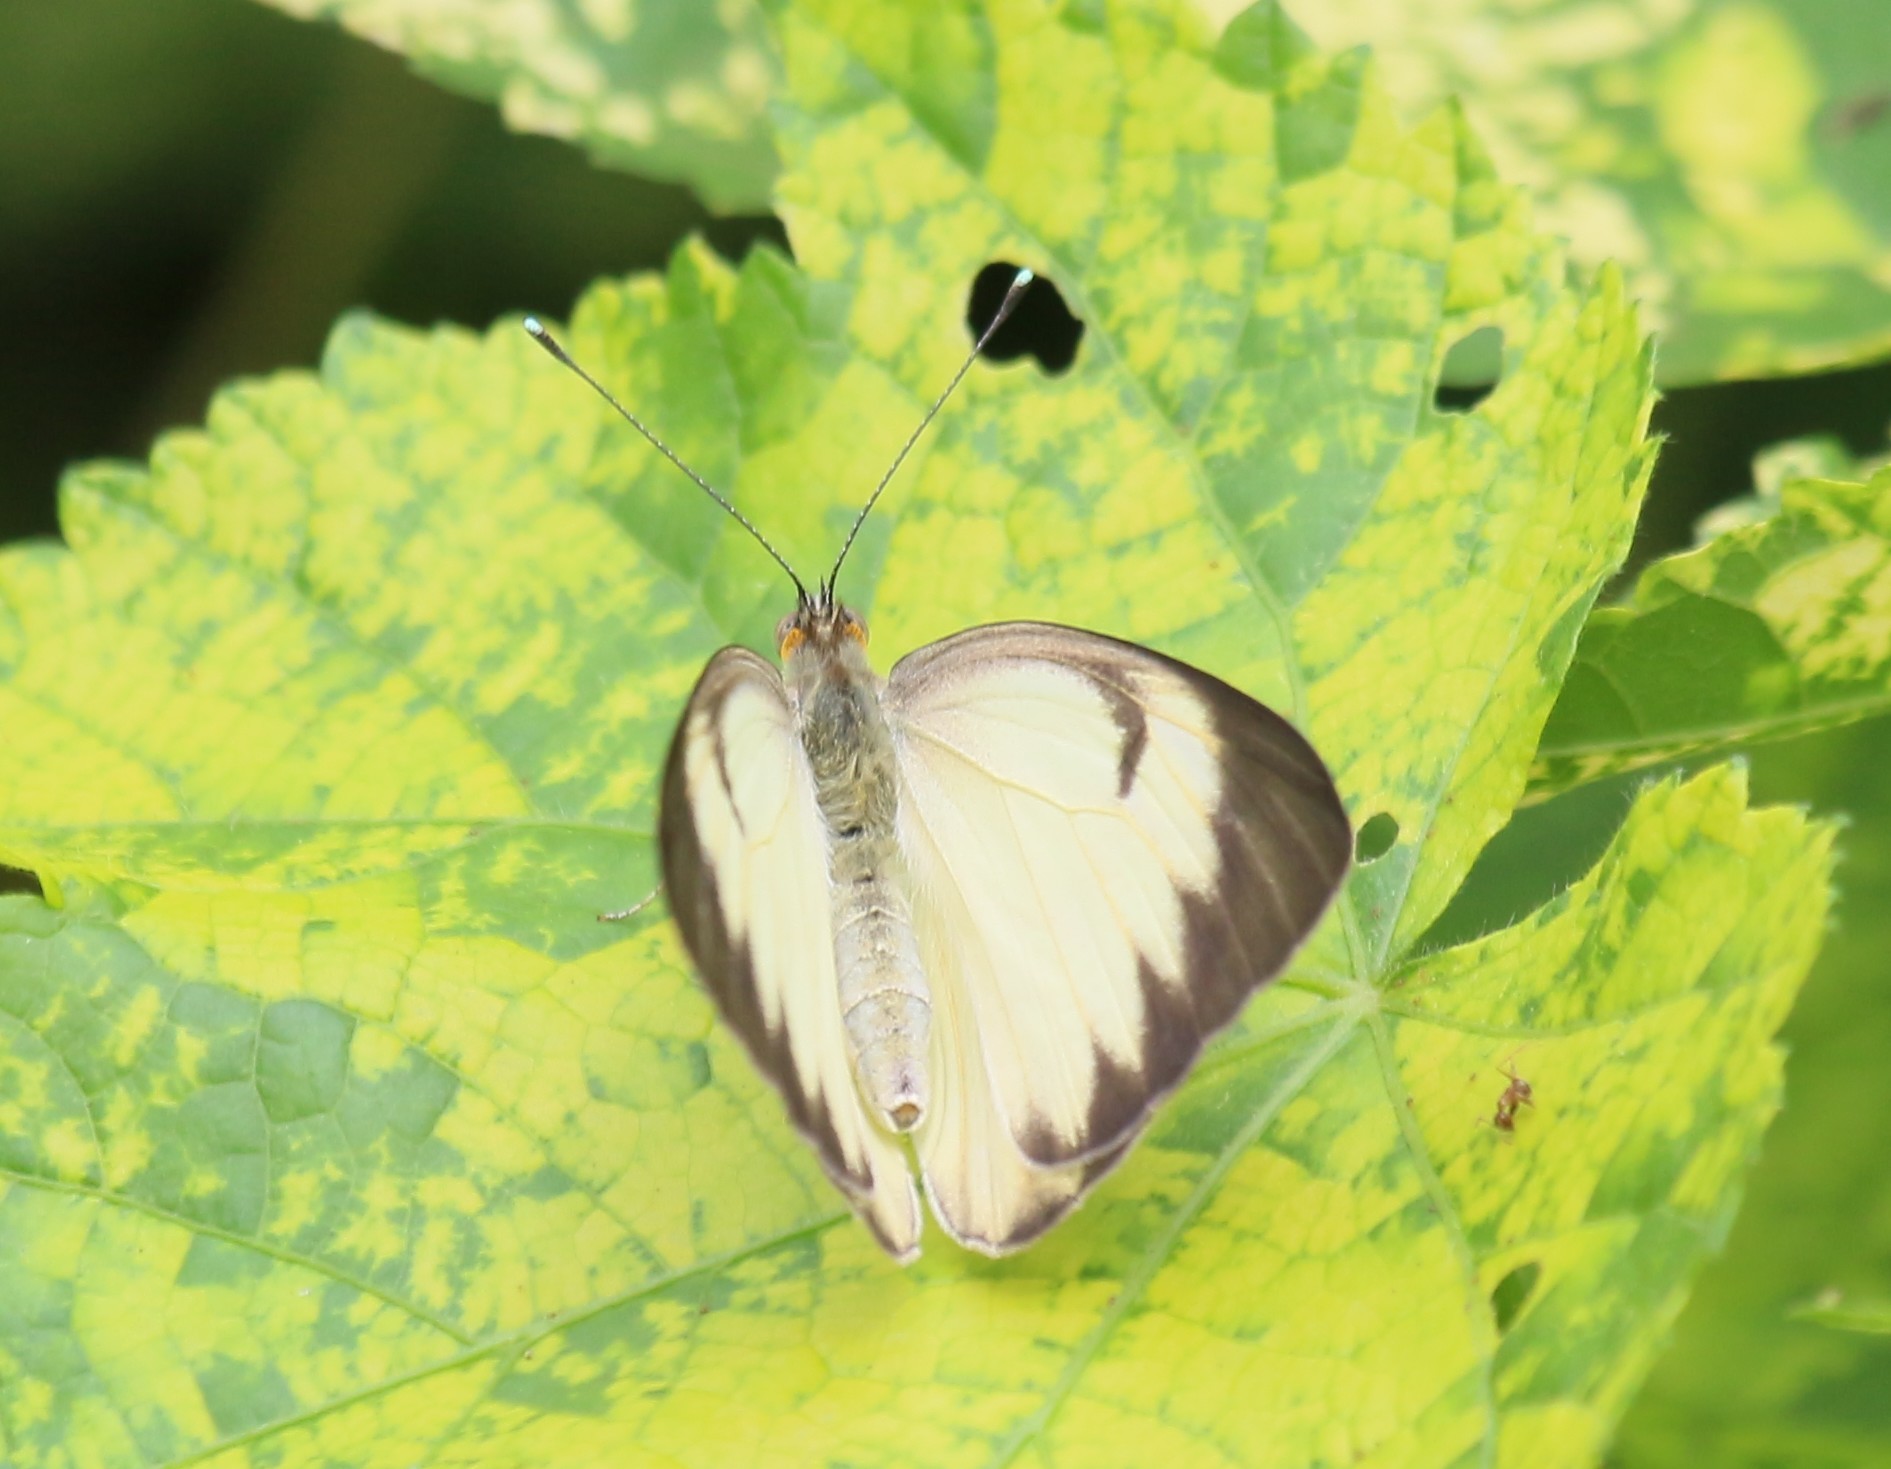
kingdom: Animalia
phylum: Arthropoda
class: Insecta
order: Lepidoptera
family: Pieridae
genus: Ascia
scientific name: Ascia monuste
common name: Great southern white
